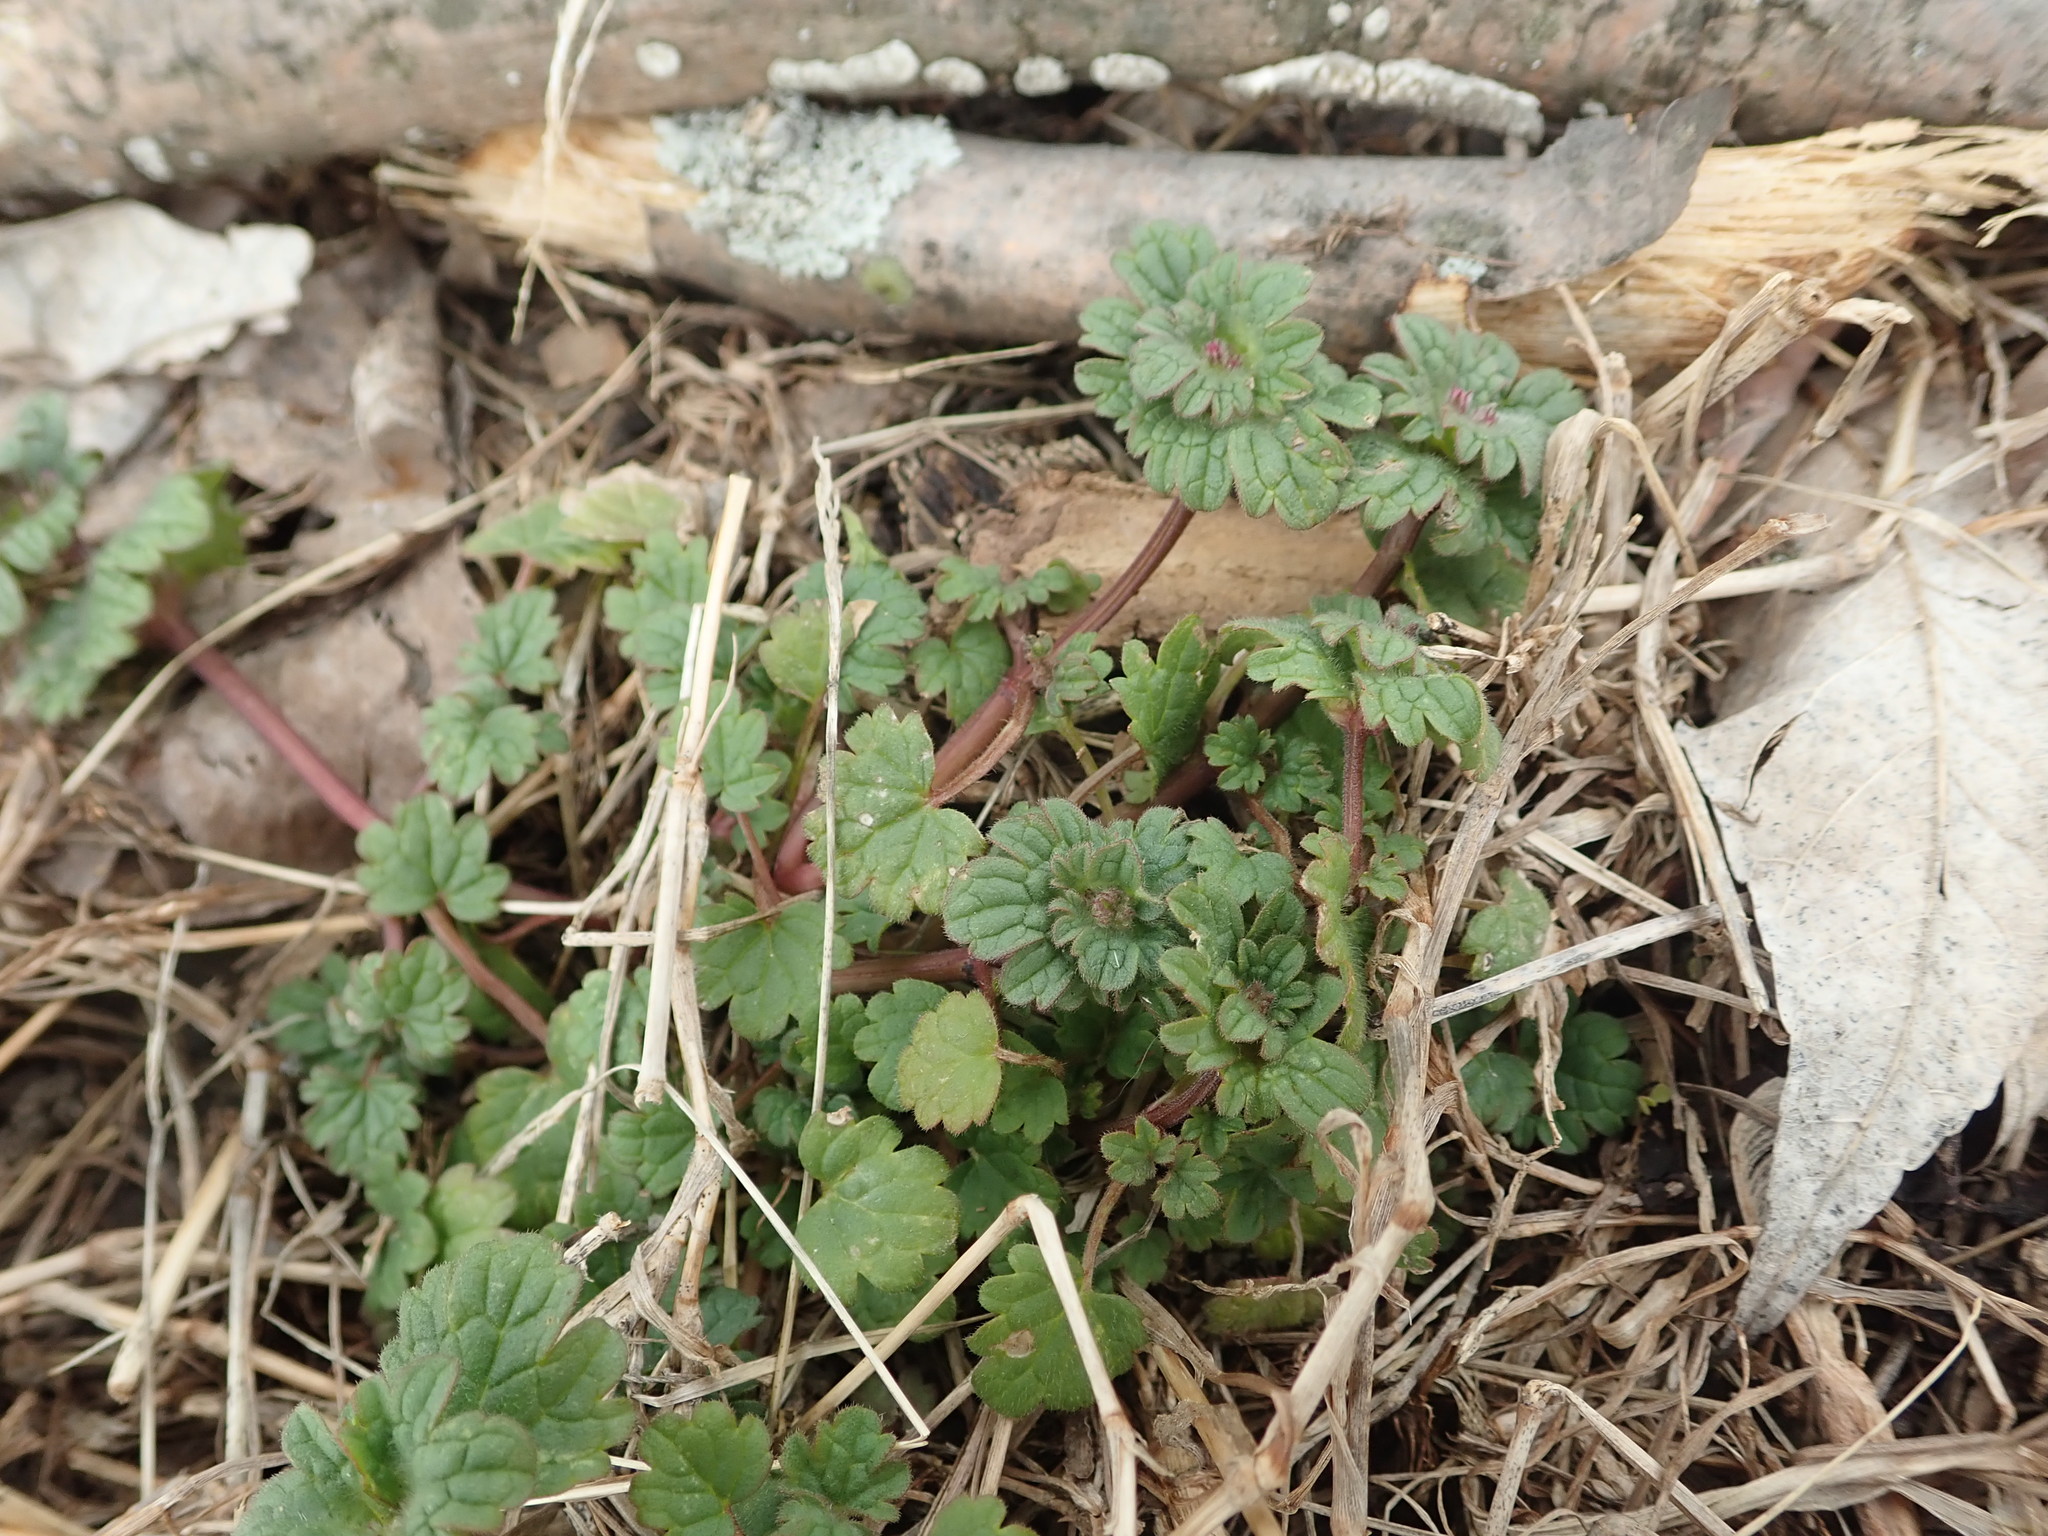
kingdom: Plantae
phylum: Tracheophyta
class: Magnoliopsida
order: Lamiales
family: Lamiaceae
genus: Lamium
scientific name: Lamium amplexicaule
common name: Henbit dead-nettle
